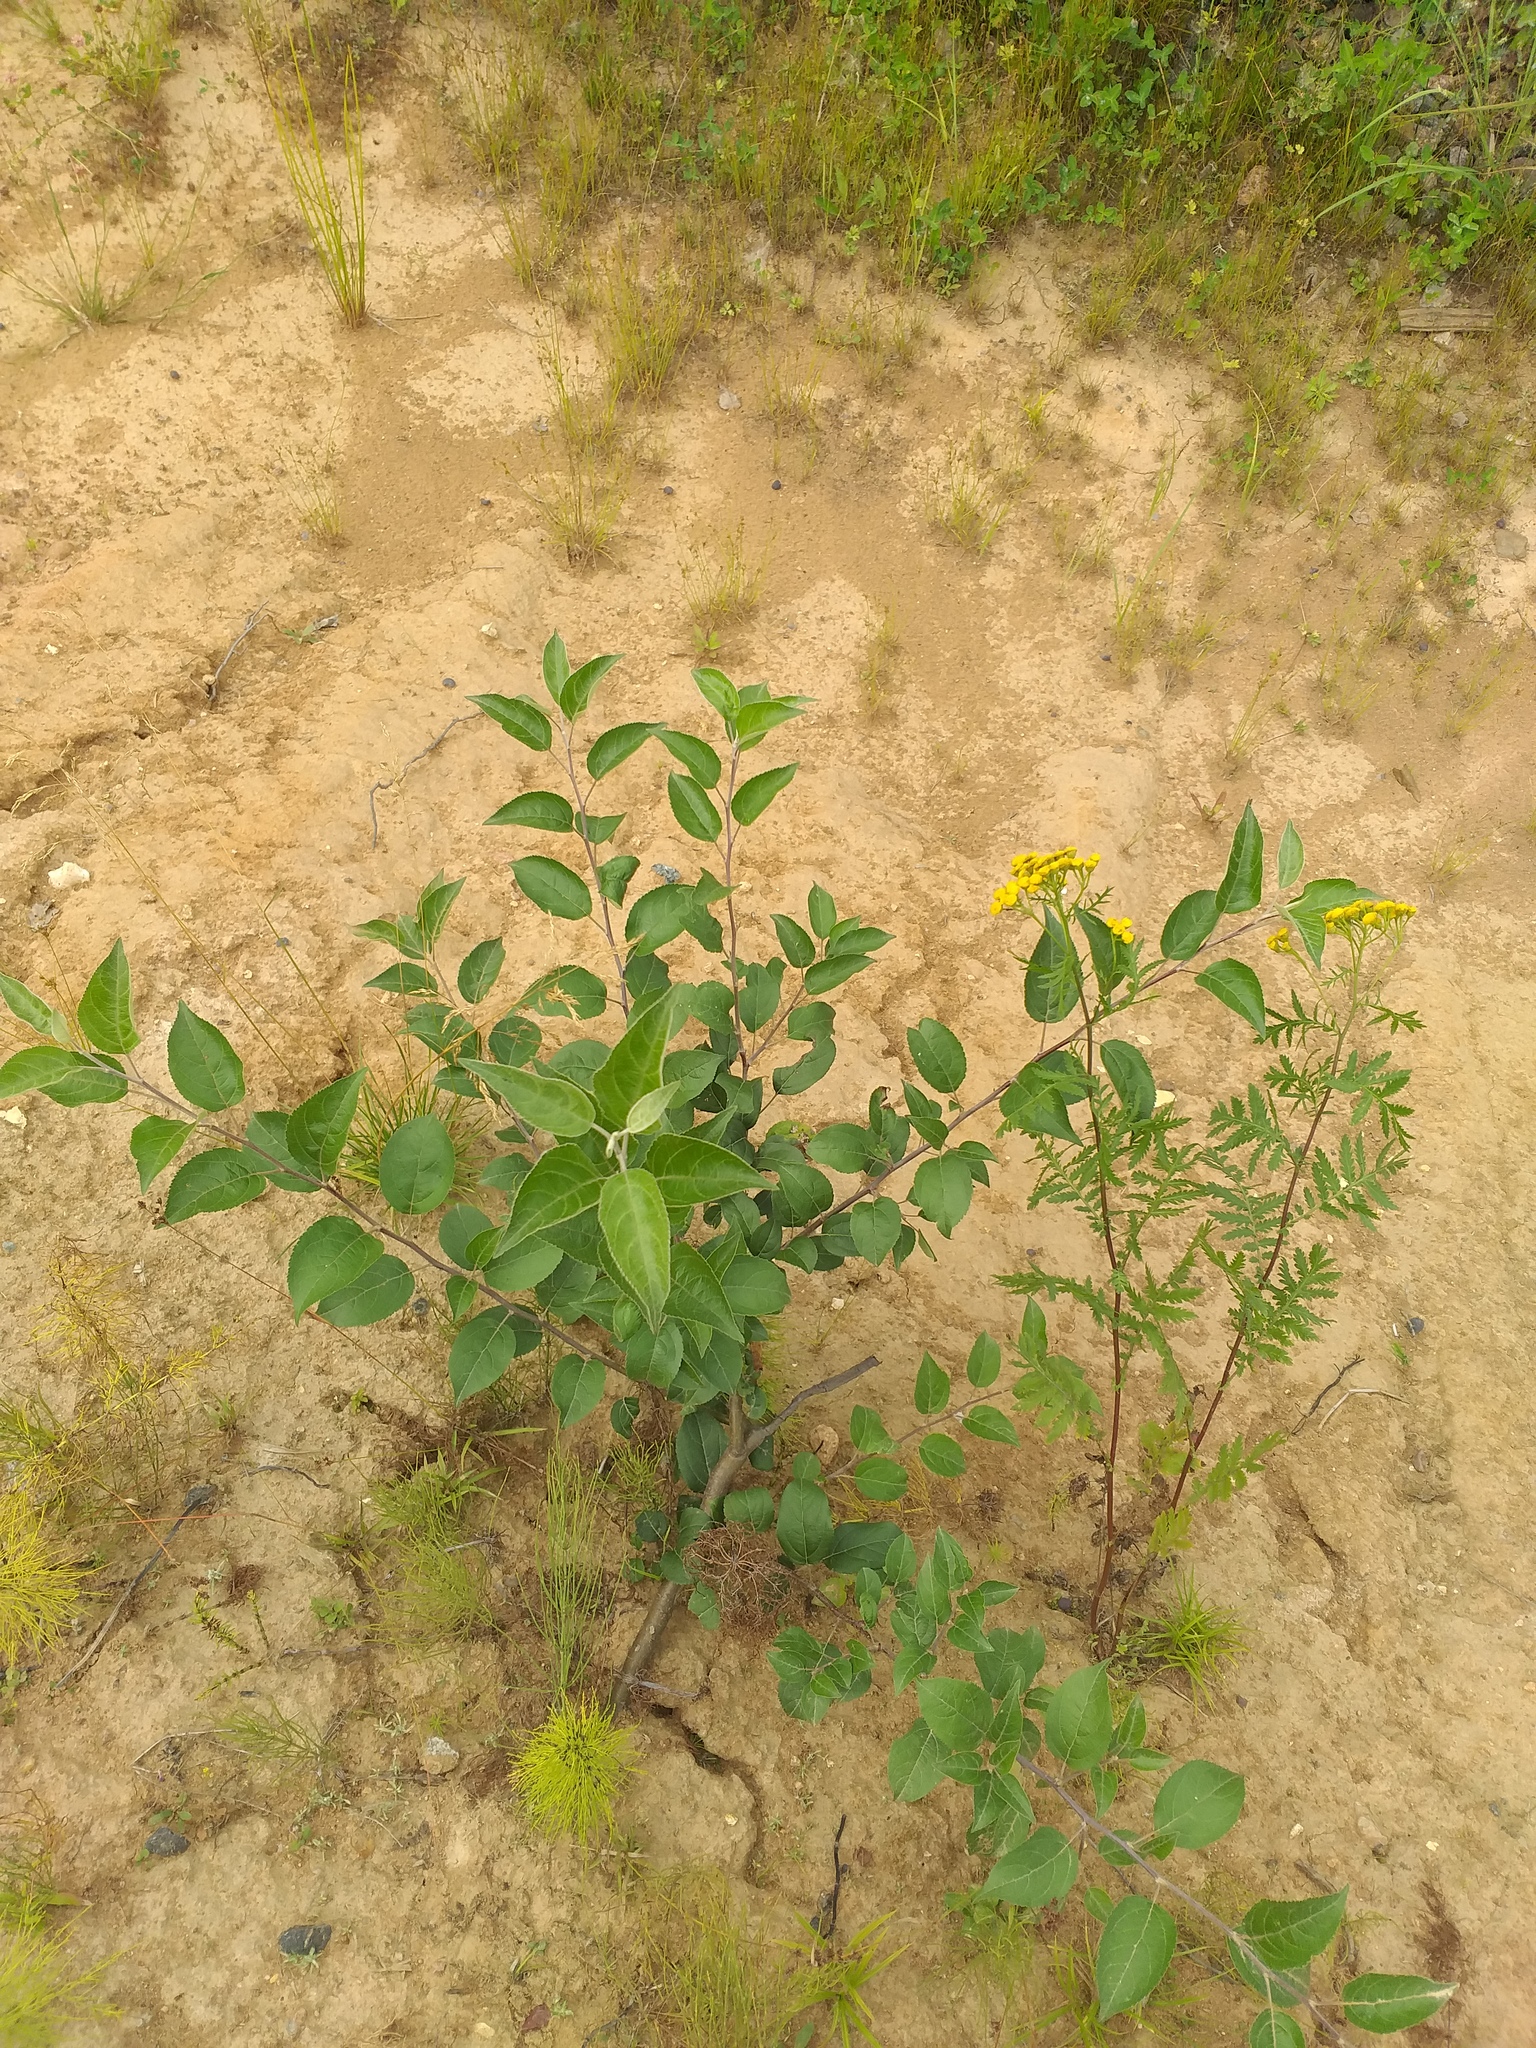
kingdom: Plantae
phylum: Tracheophyta
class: Magnoliopsida
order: Rosales
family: Rosaceae
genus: Malus
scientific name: Malus domestica
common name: Apple
